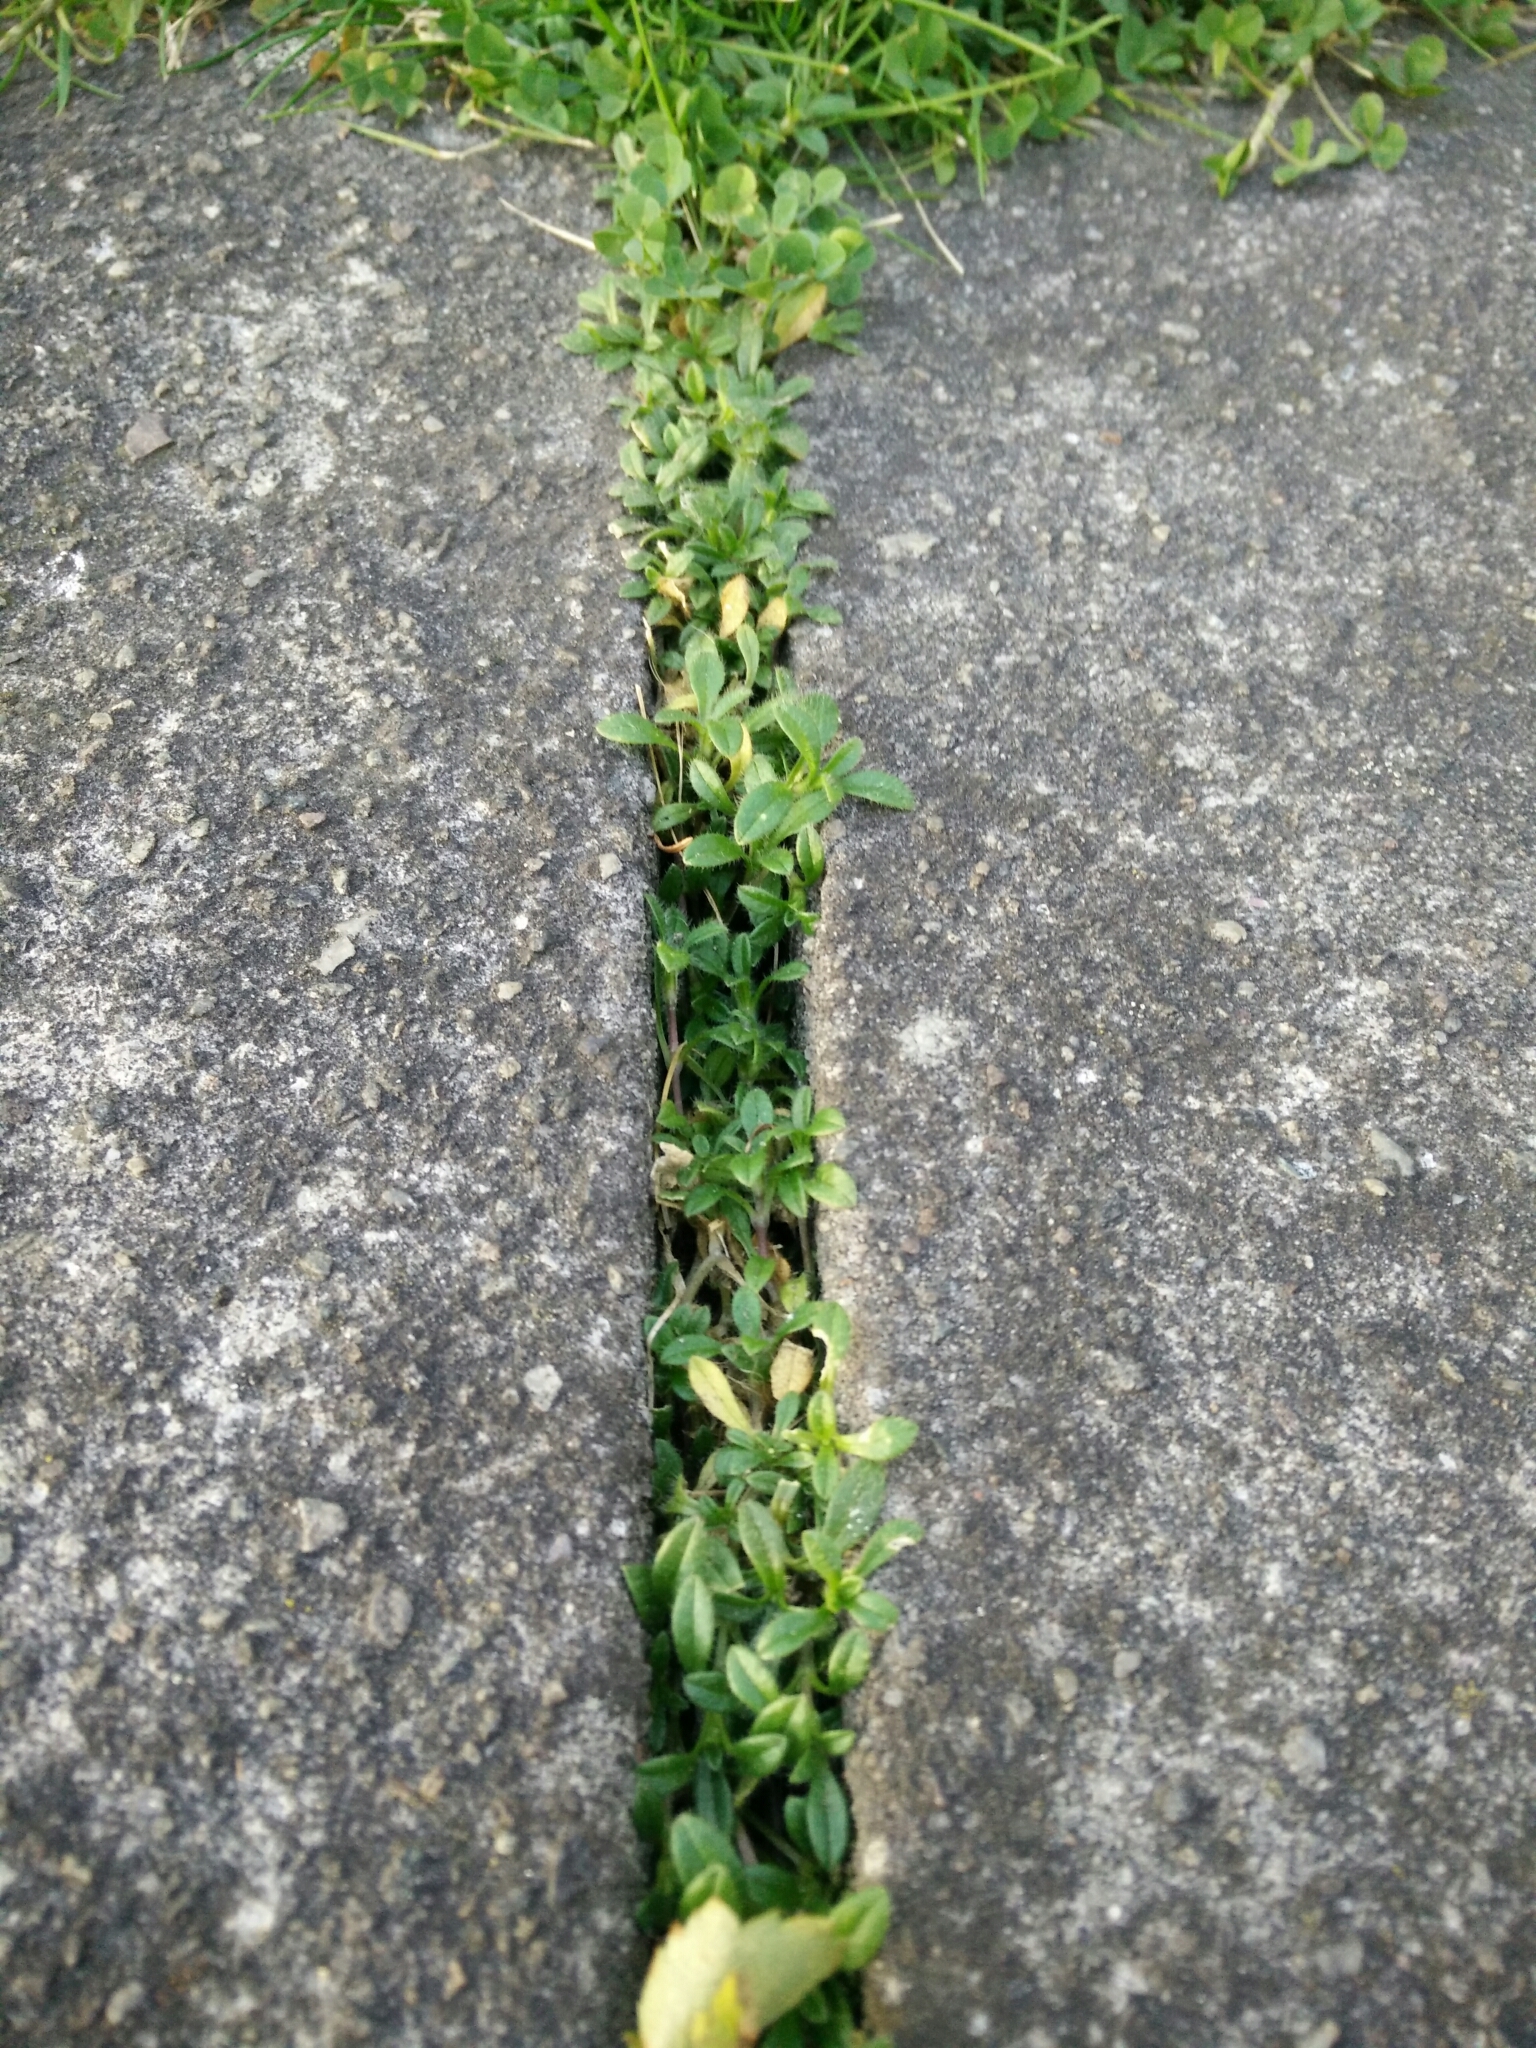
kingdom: Plantae
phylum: Tracheophyta
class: Magnoliopsida
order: Caryophyllales
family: Caryophyllaceae
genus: Cerastium
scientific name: Cerastium fontanum
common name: Common mouse-ear
